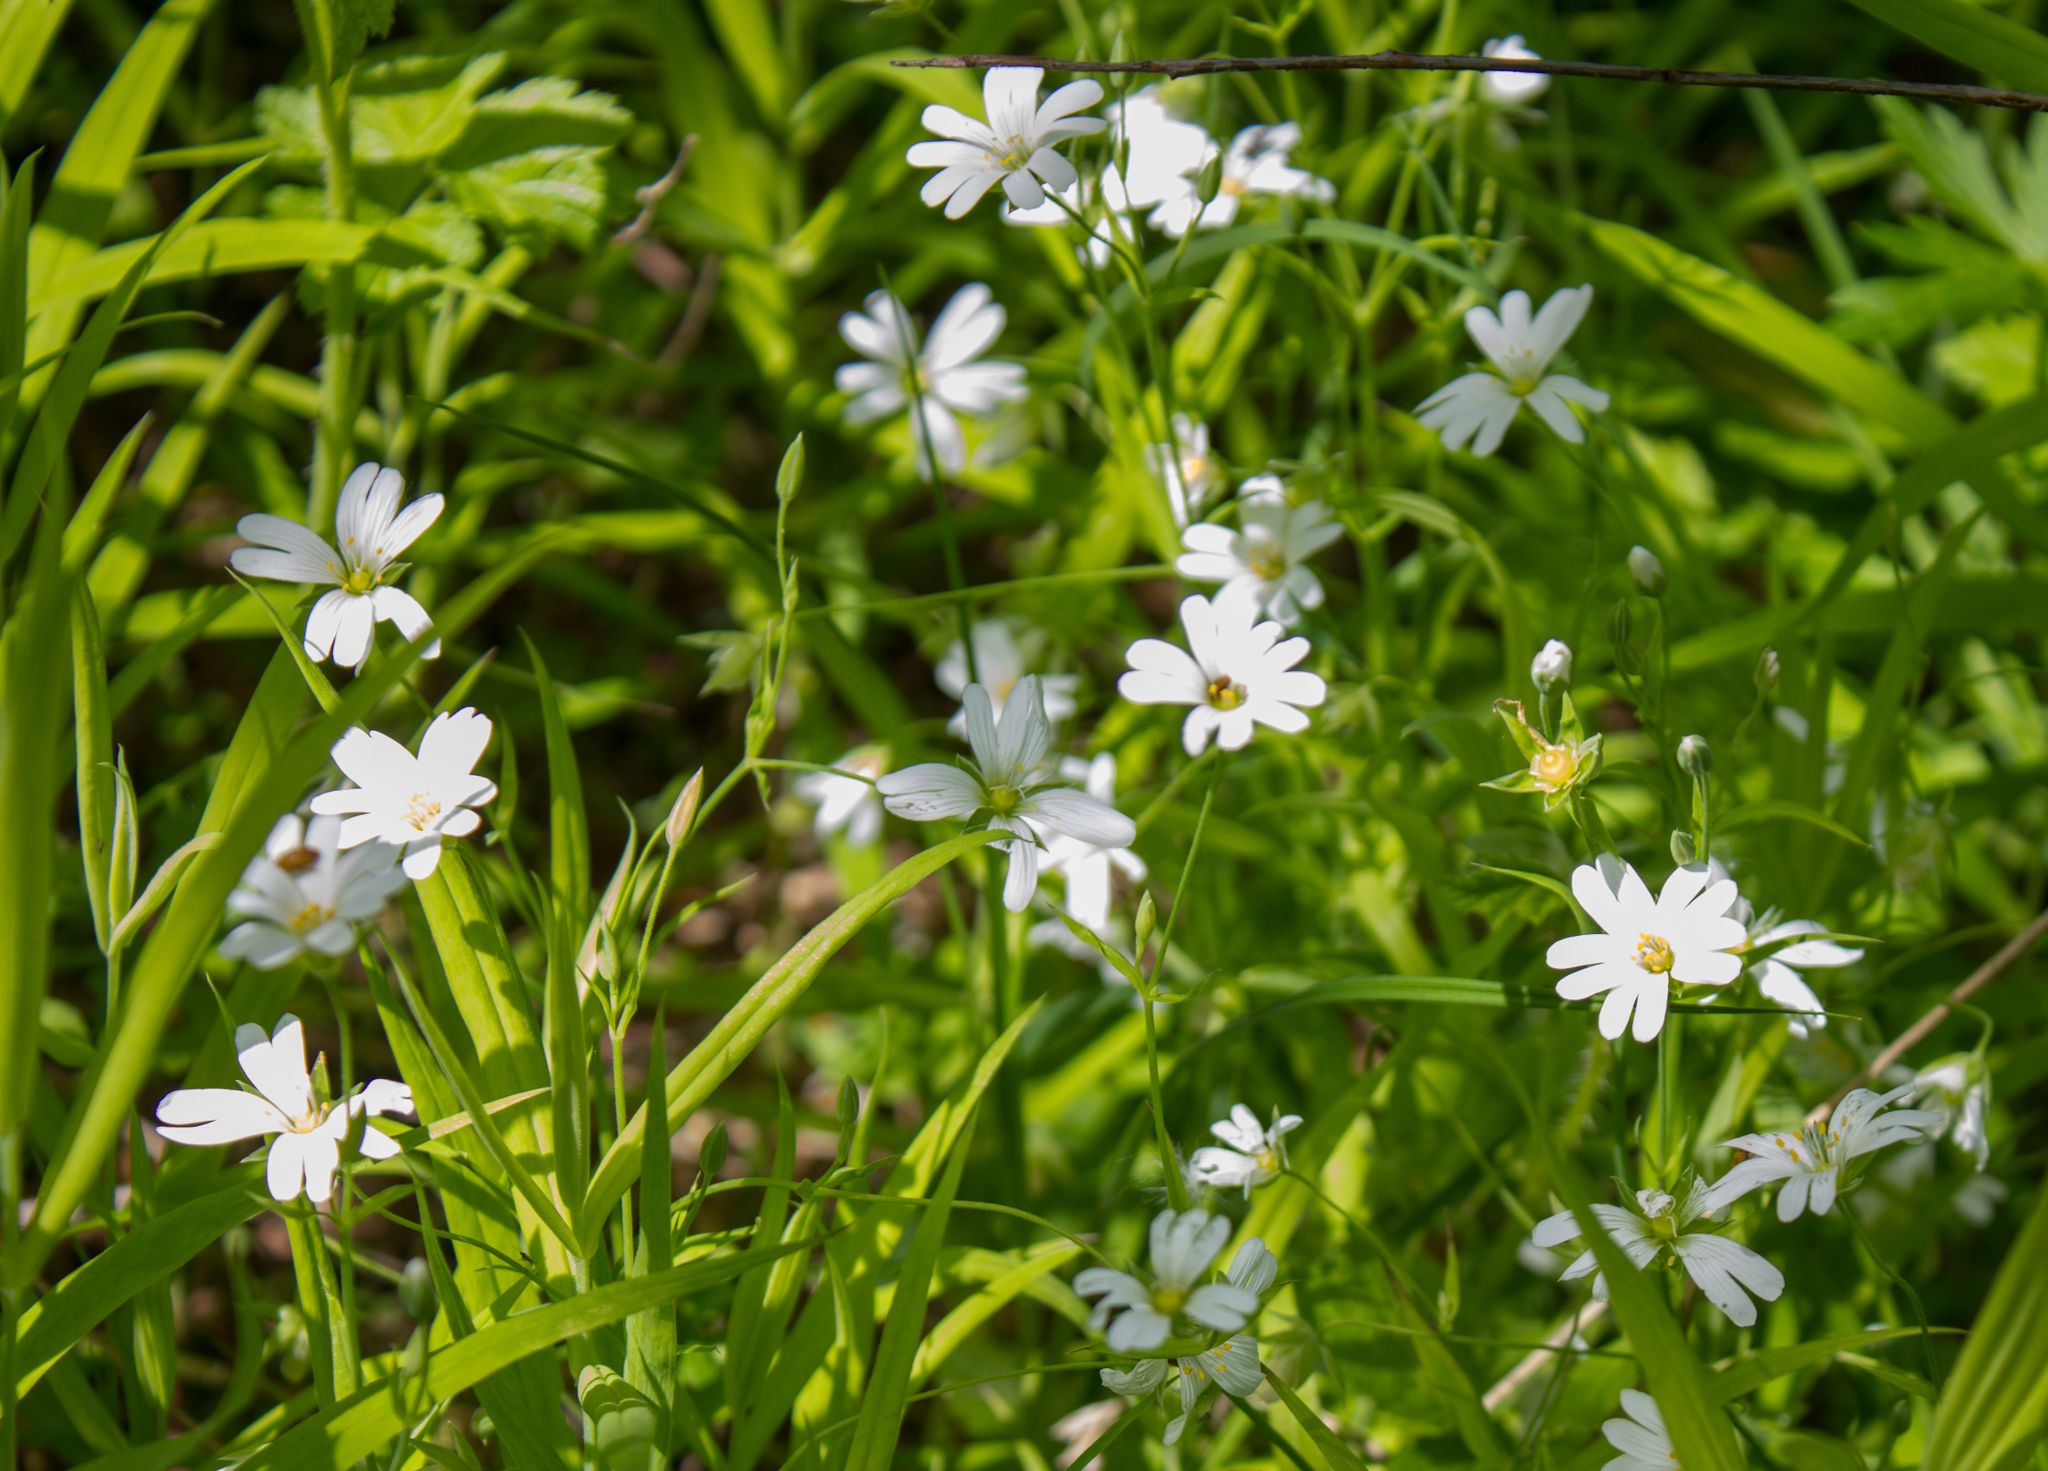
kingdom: Plantae
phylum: Tracheophyta
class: Magnoliopsida
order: Caryophyllales
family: Caryophyllaceae
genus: Rabelera
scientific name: Rabelera holostea
